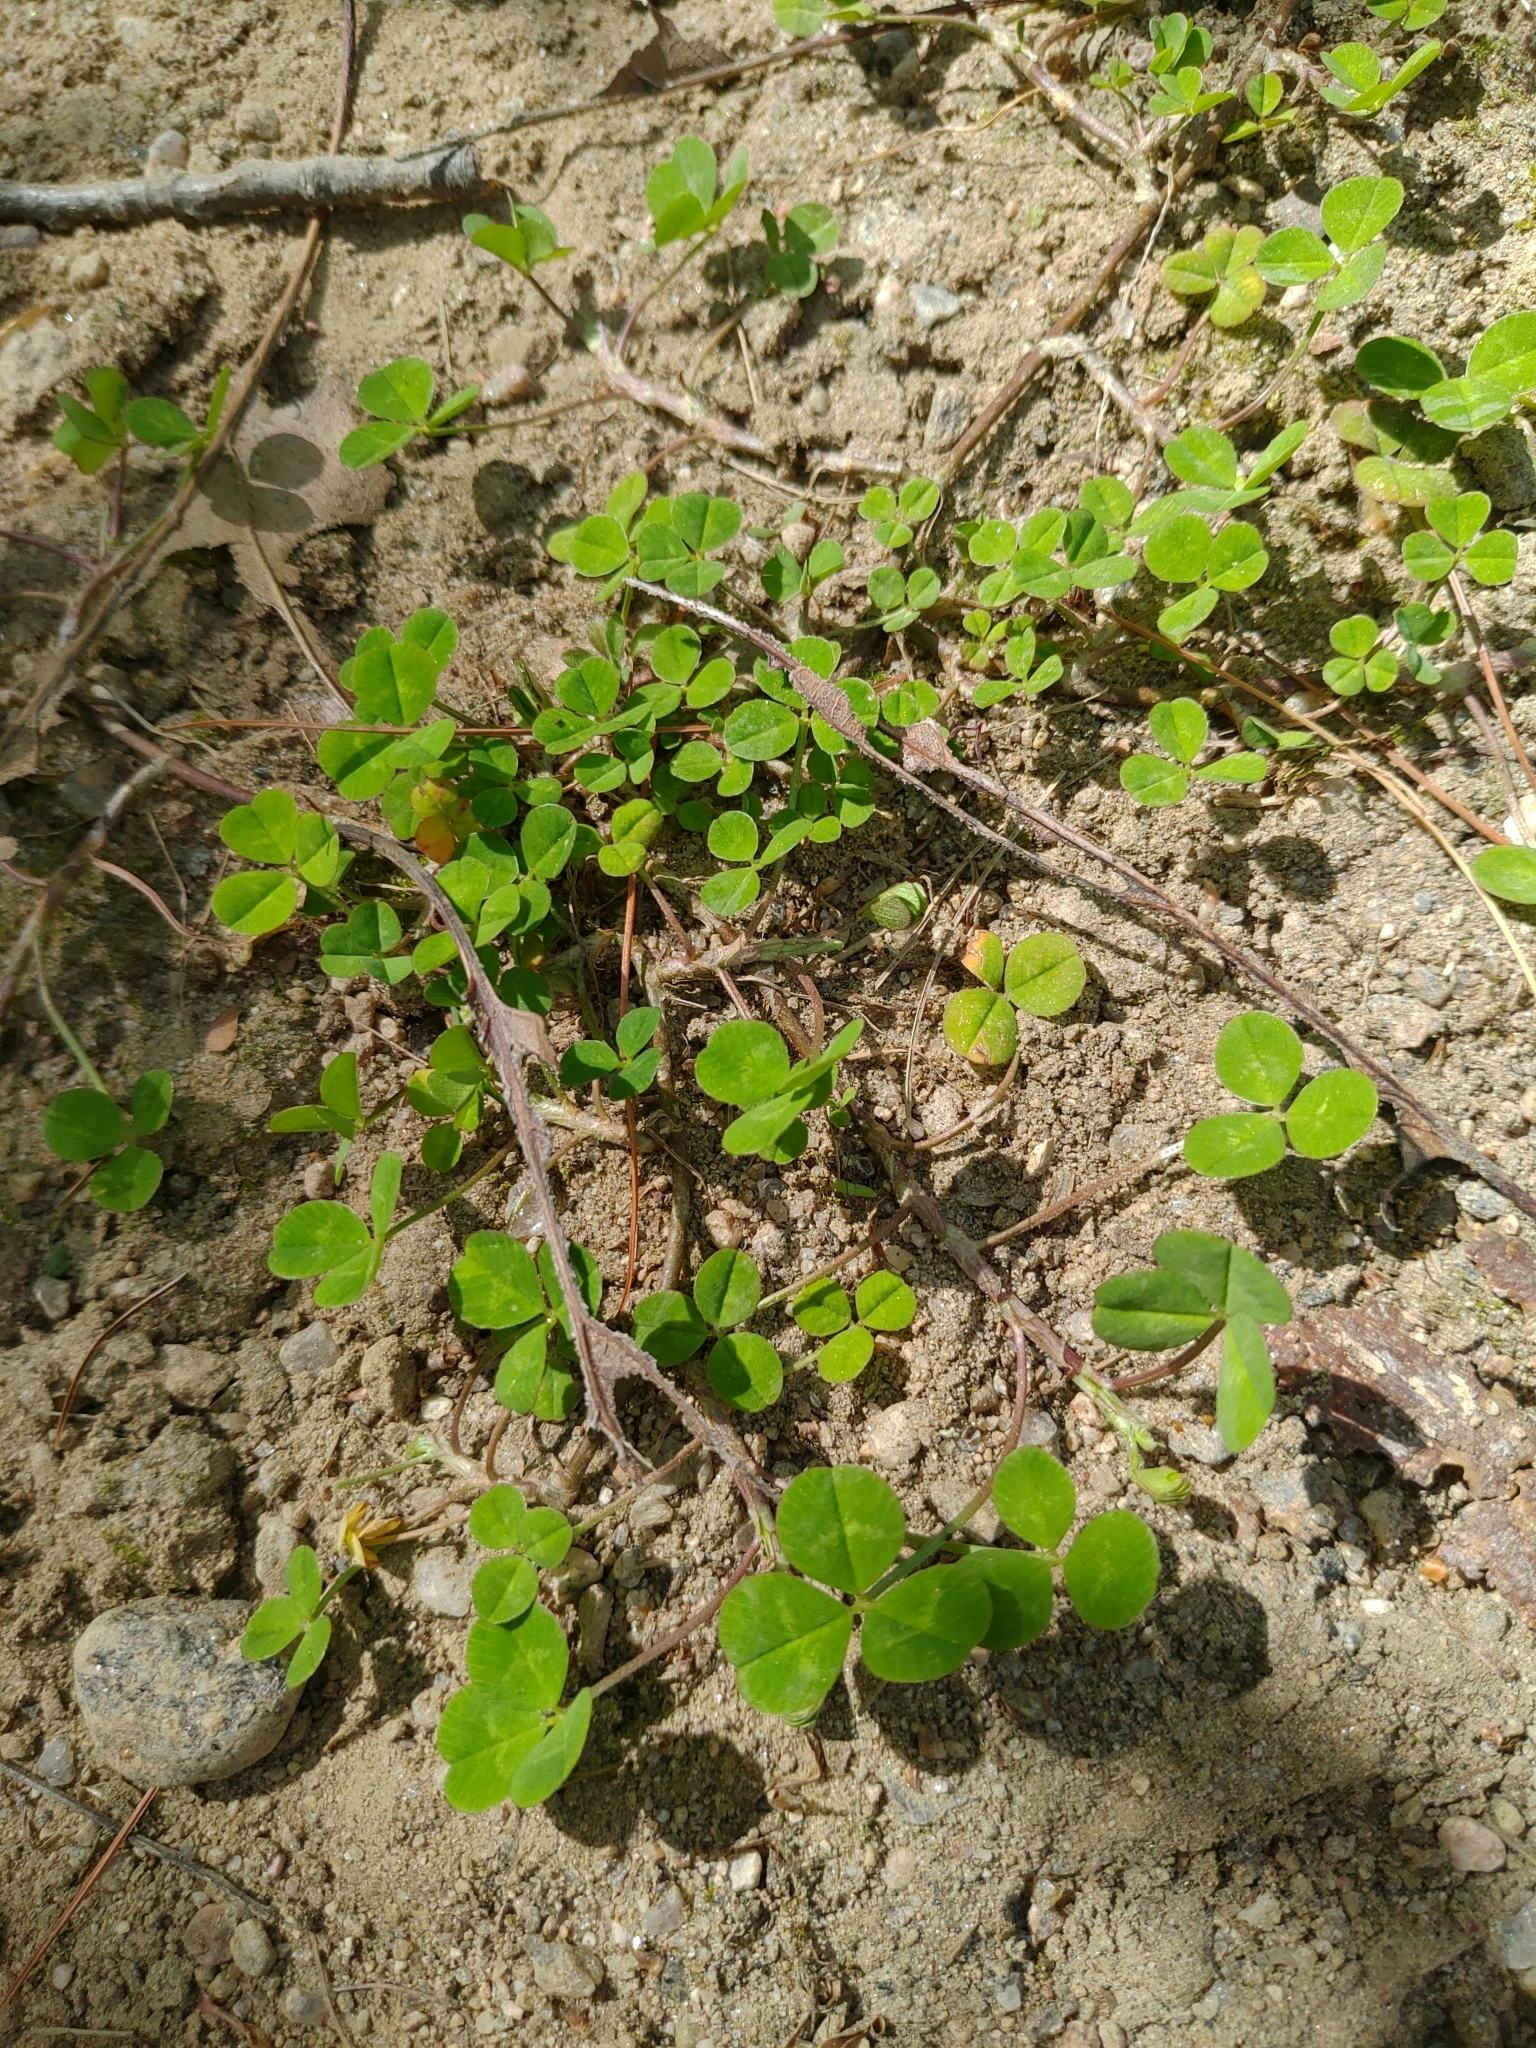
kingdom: Plantae
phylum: Tracheophyta
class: Magnoliopsida
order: Fabales
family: Fabaceae
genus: Trifolium
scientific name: Trifolium repens
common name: White clover
